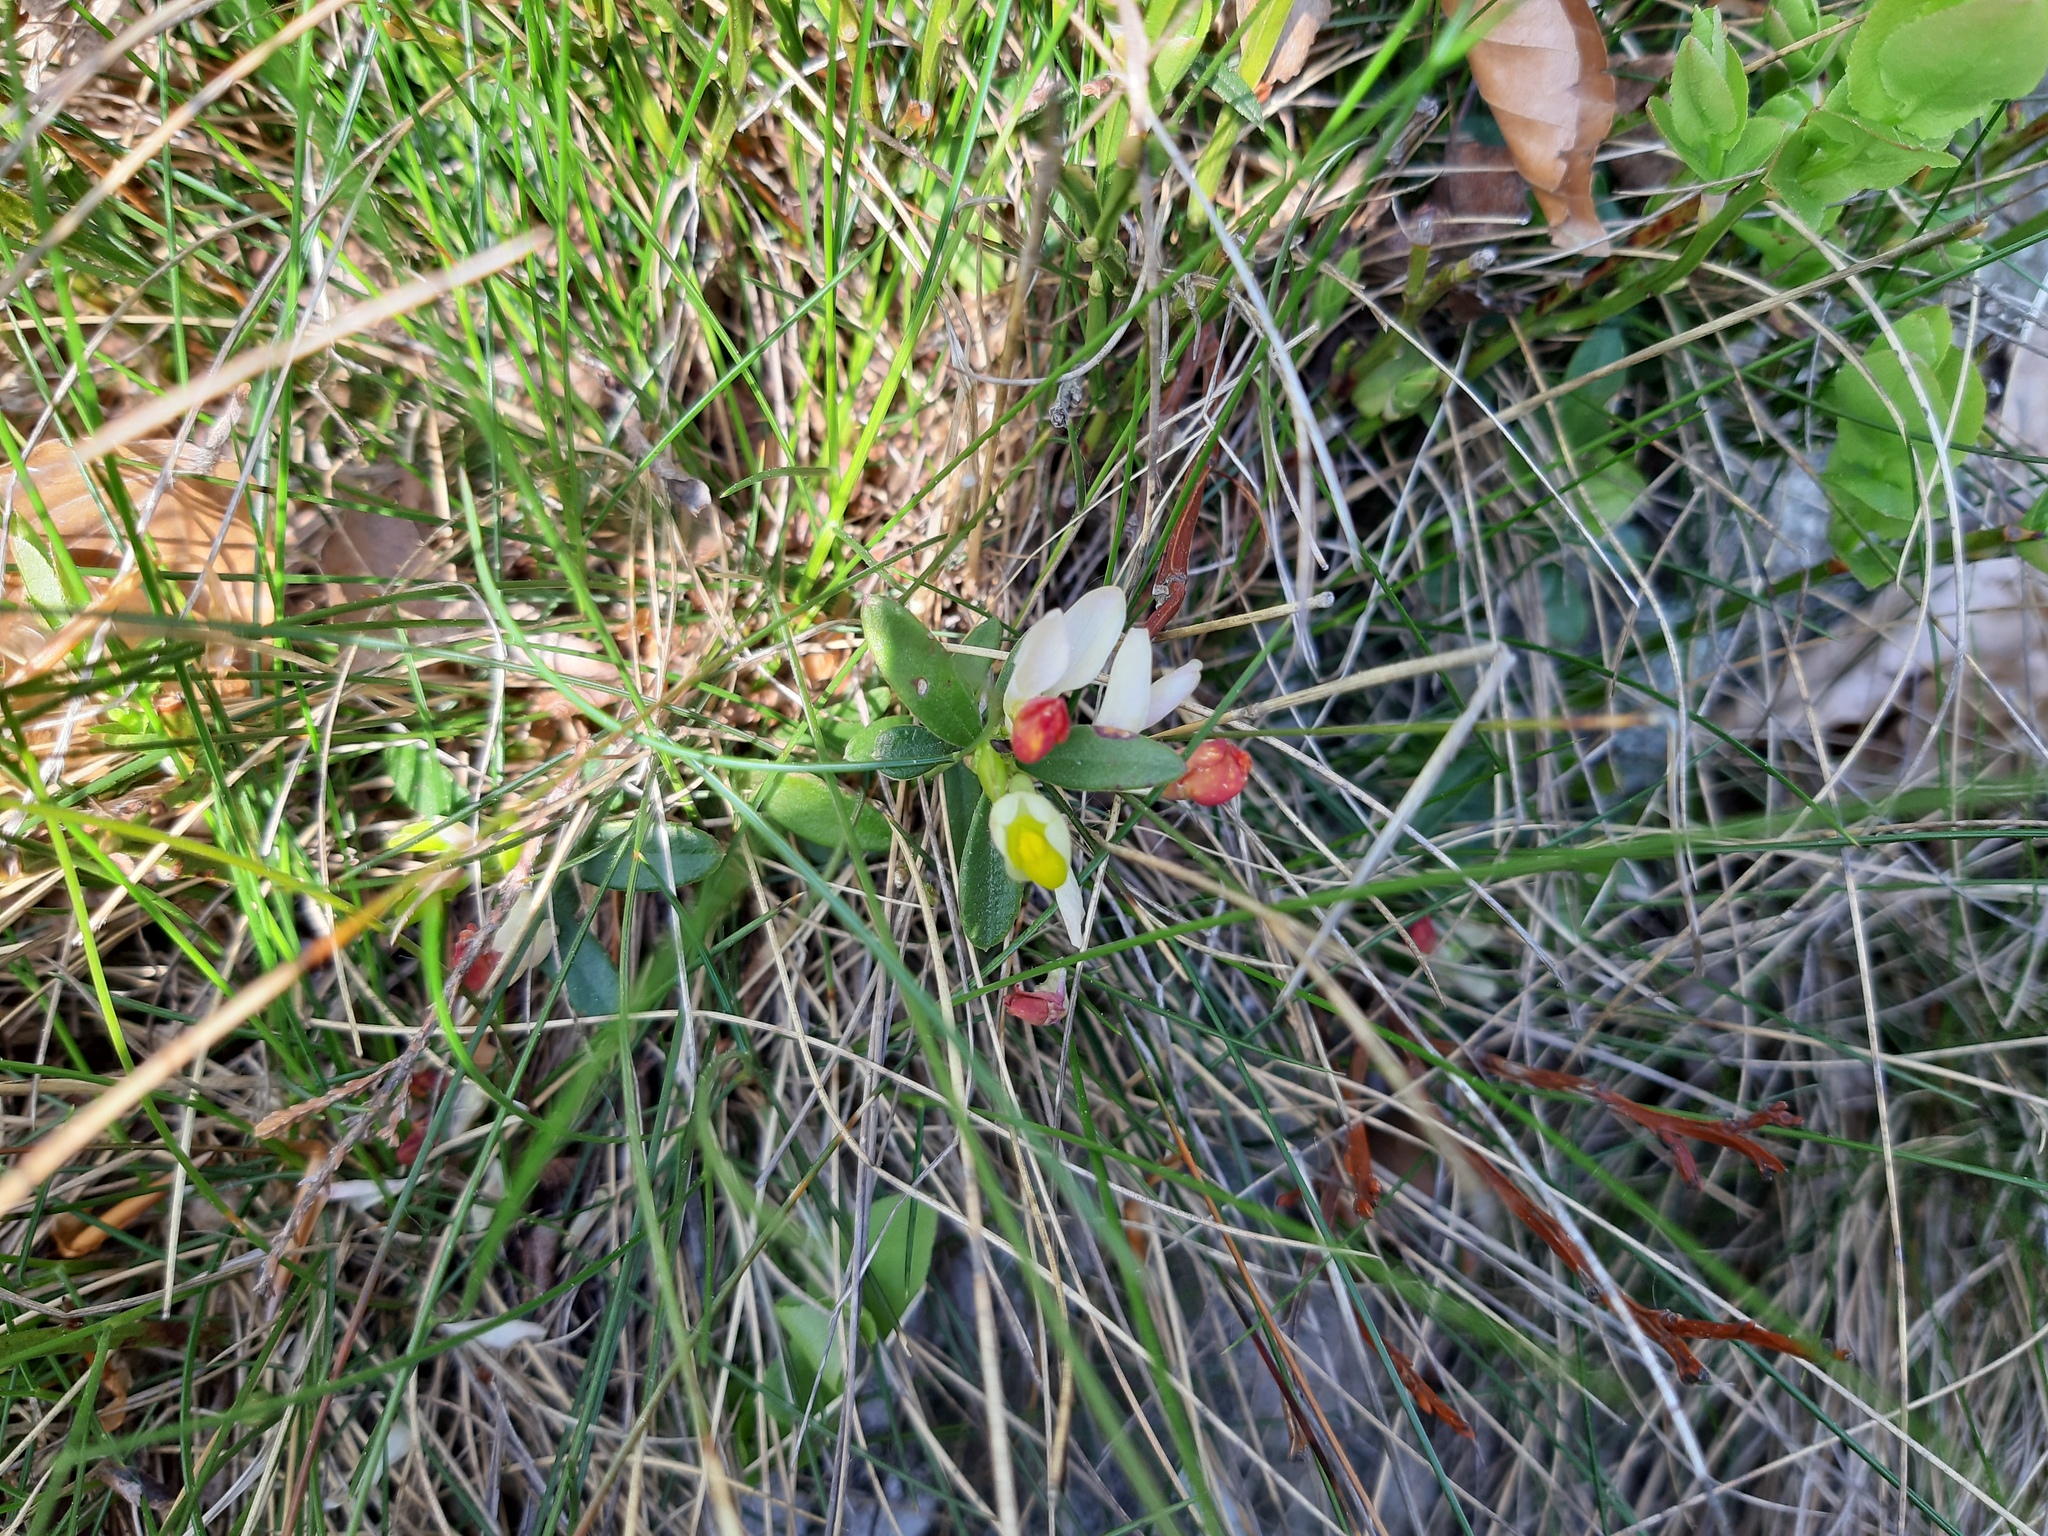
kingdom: Plantae
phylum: Tracheophyta
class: Magnoliopsida
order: Fabales
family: Polygalaceae
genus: Polygaloides
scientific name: Polygaloides chamaebuxus
